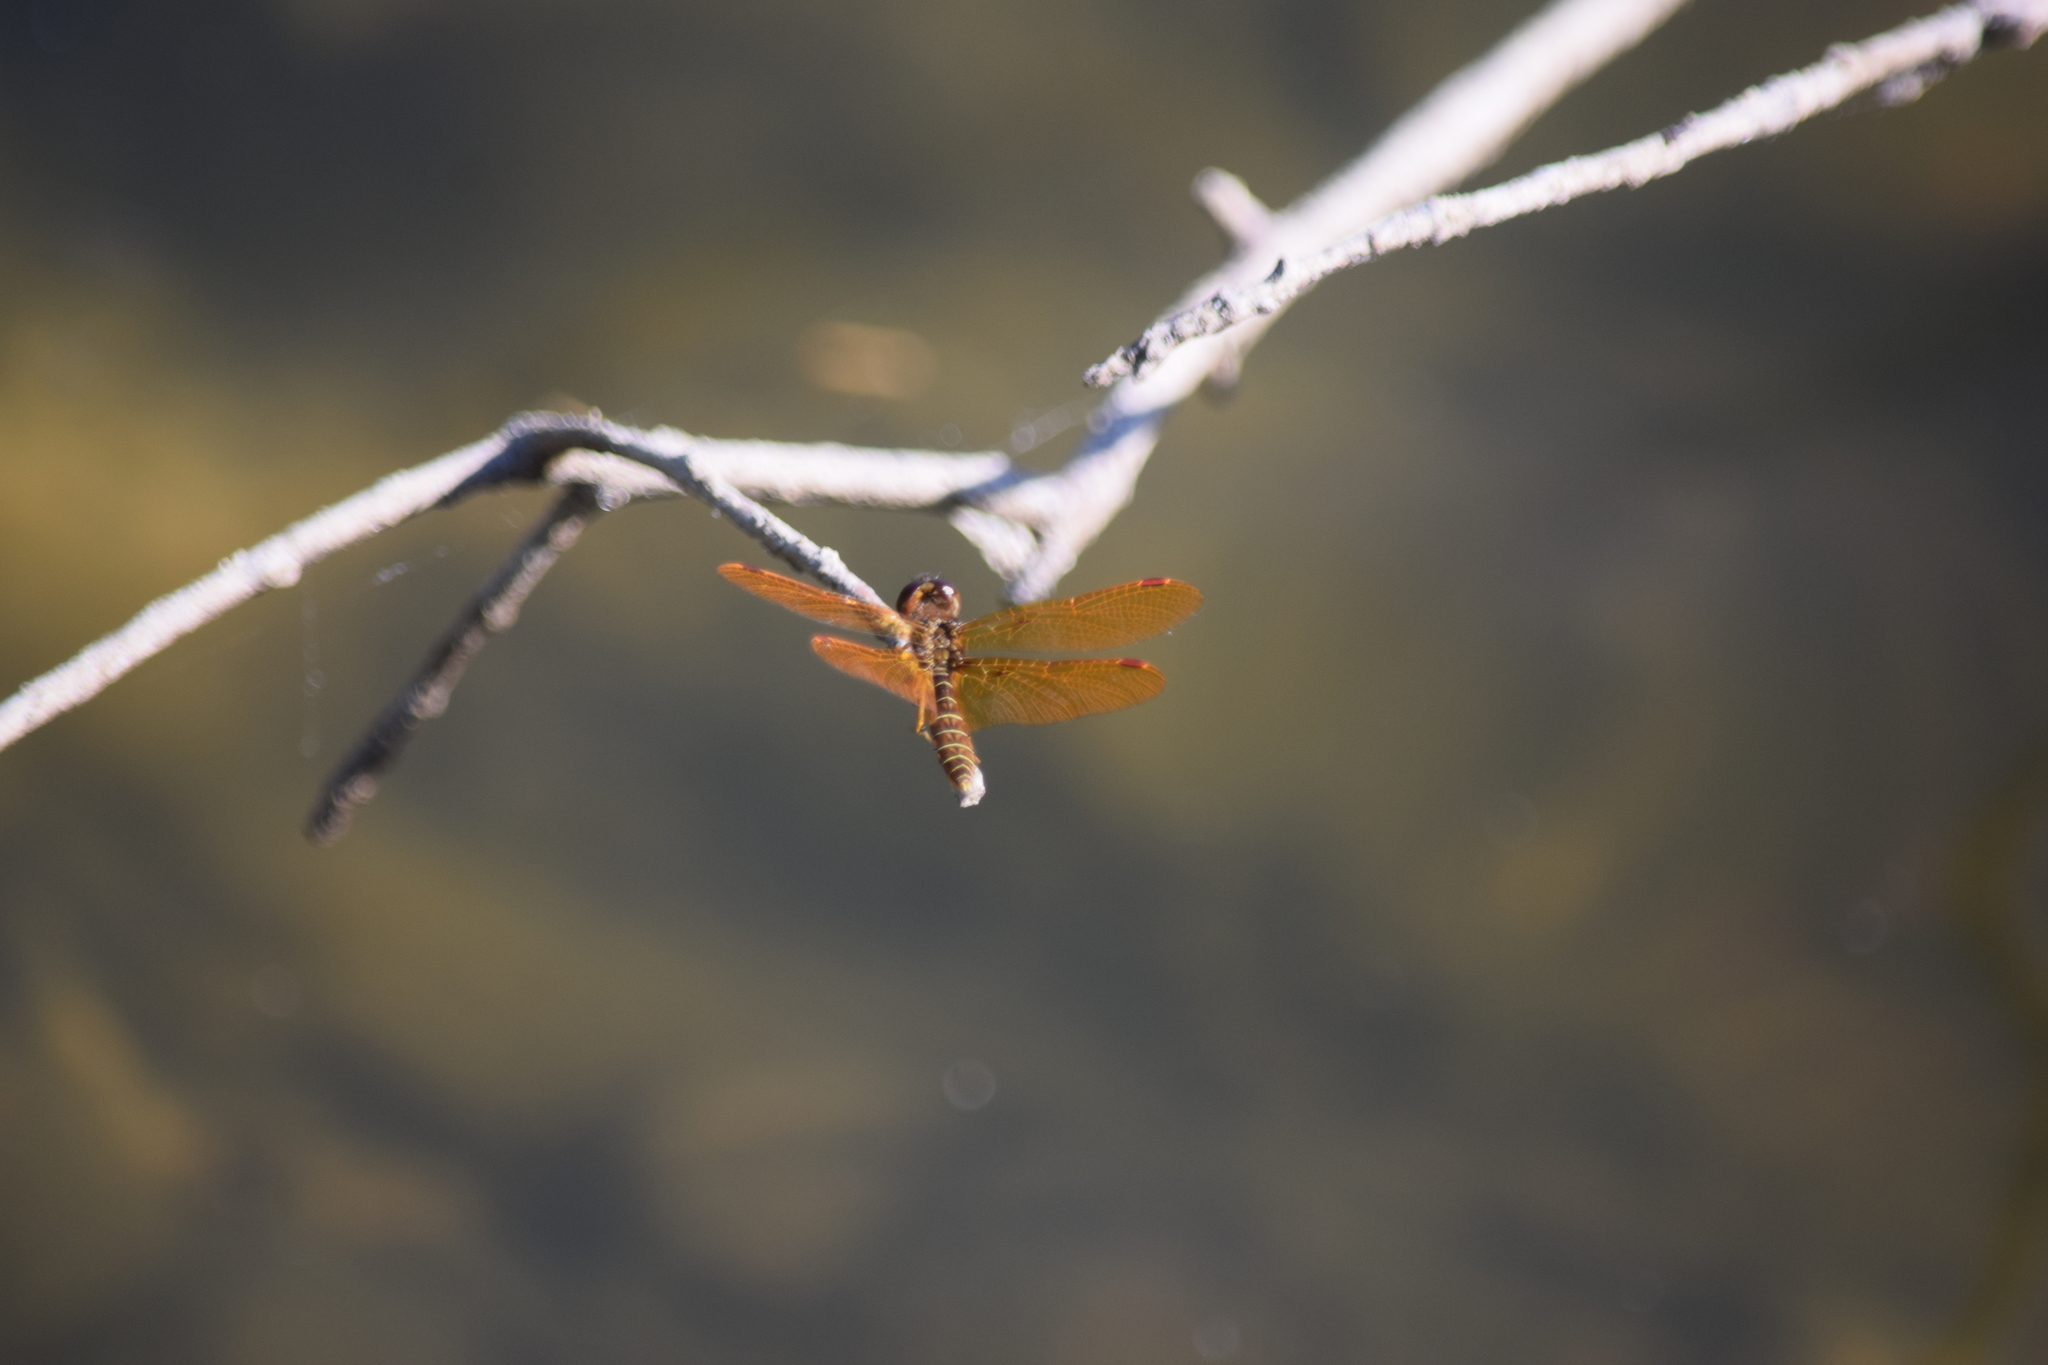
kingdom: Animalia
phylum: Arthropoda
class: Insecta
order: Odonata
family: Libellulidae
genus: Perithemis
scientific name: Perithemis tenera
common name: Eastern amberwing
